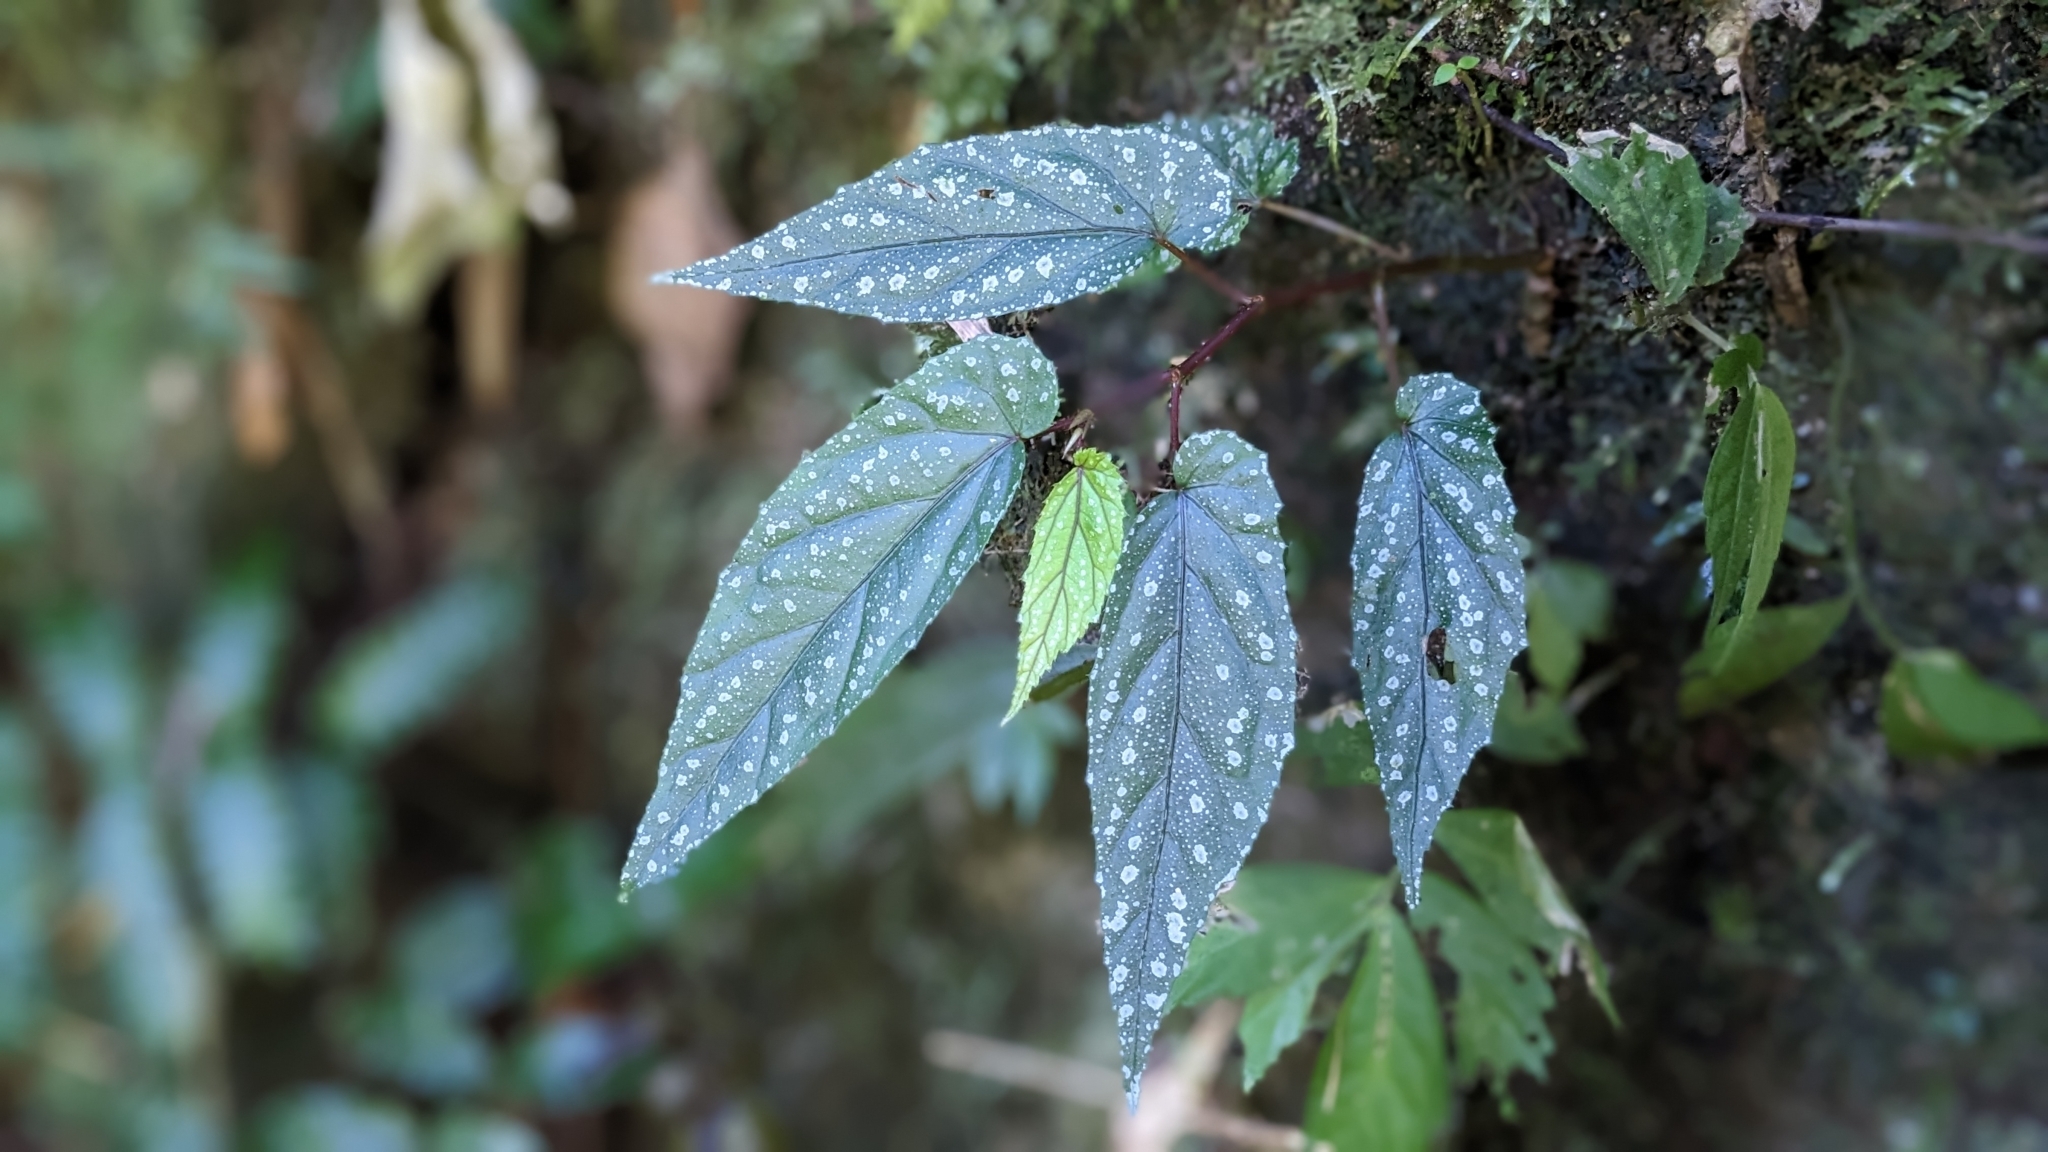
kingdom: Plantae
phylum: Tracheophyta
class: Magnoliopsida
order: Cucurbitales
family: Begoniaceae
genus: Begonia
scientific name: Begonia taiwaniana
